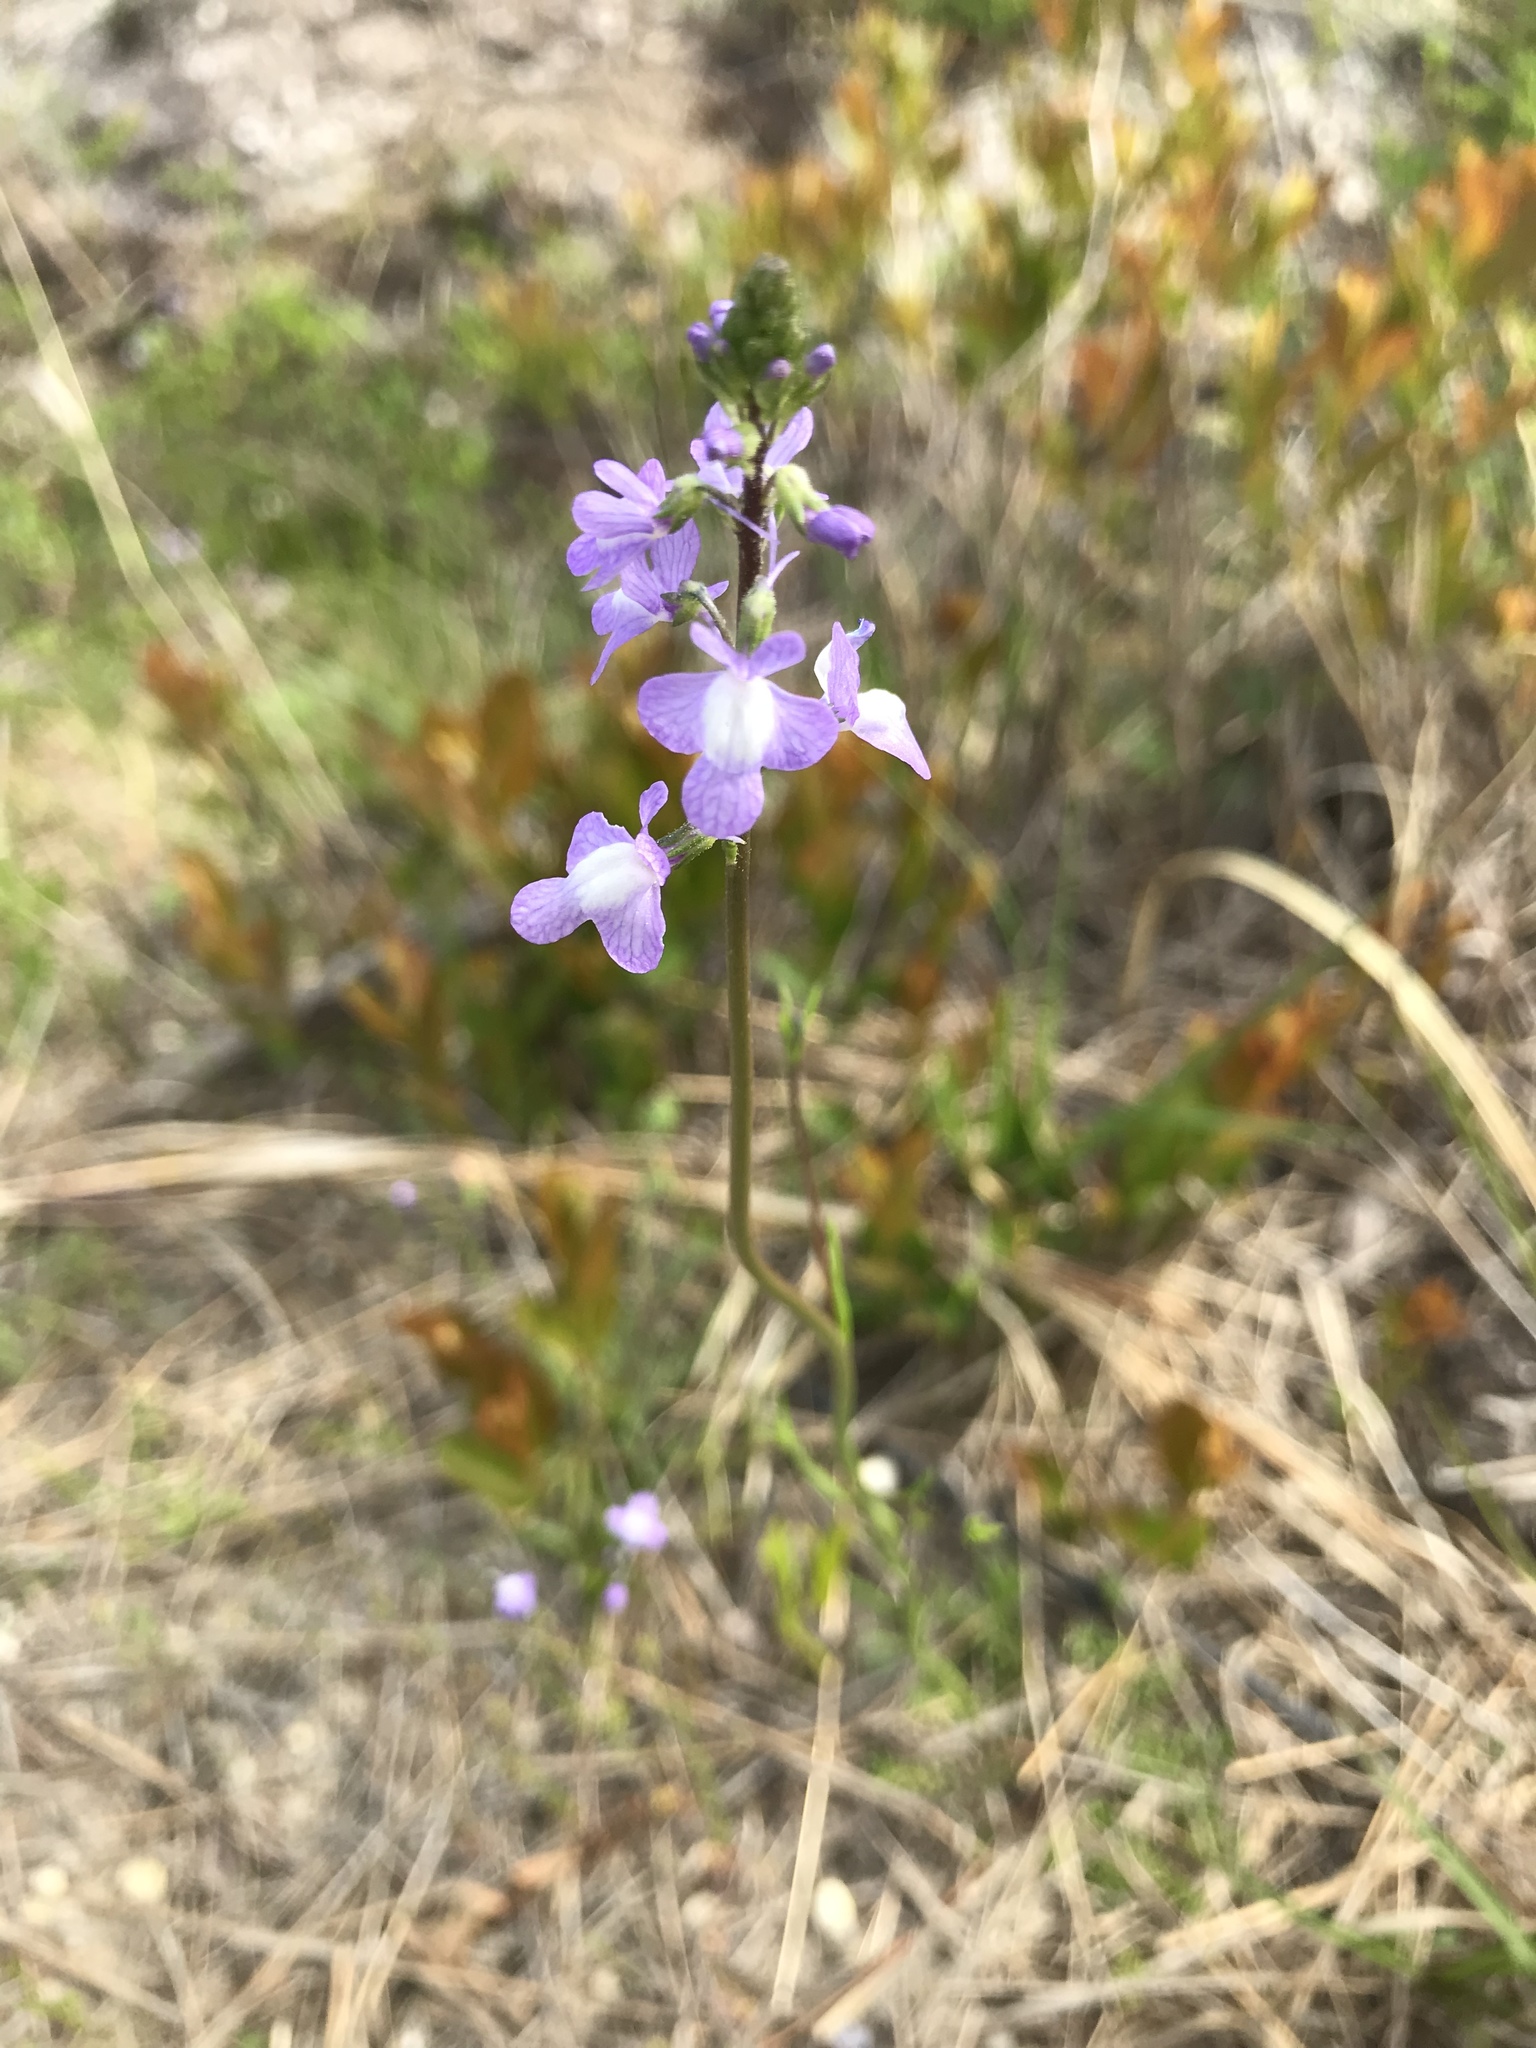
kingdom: Plantae
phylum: Tracheophyta
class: Magnoliopsida
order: Lamiales
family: Plantaginaceae
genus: Nuttallanthus
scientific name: Nuttallanthus canadensis
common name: Blue toadflax
